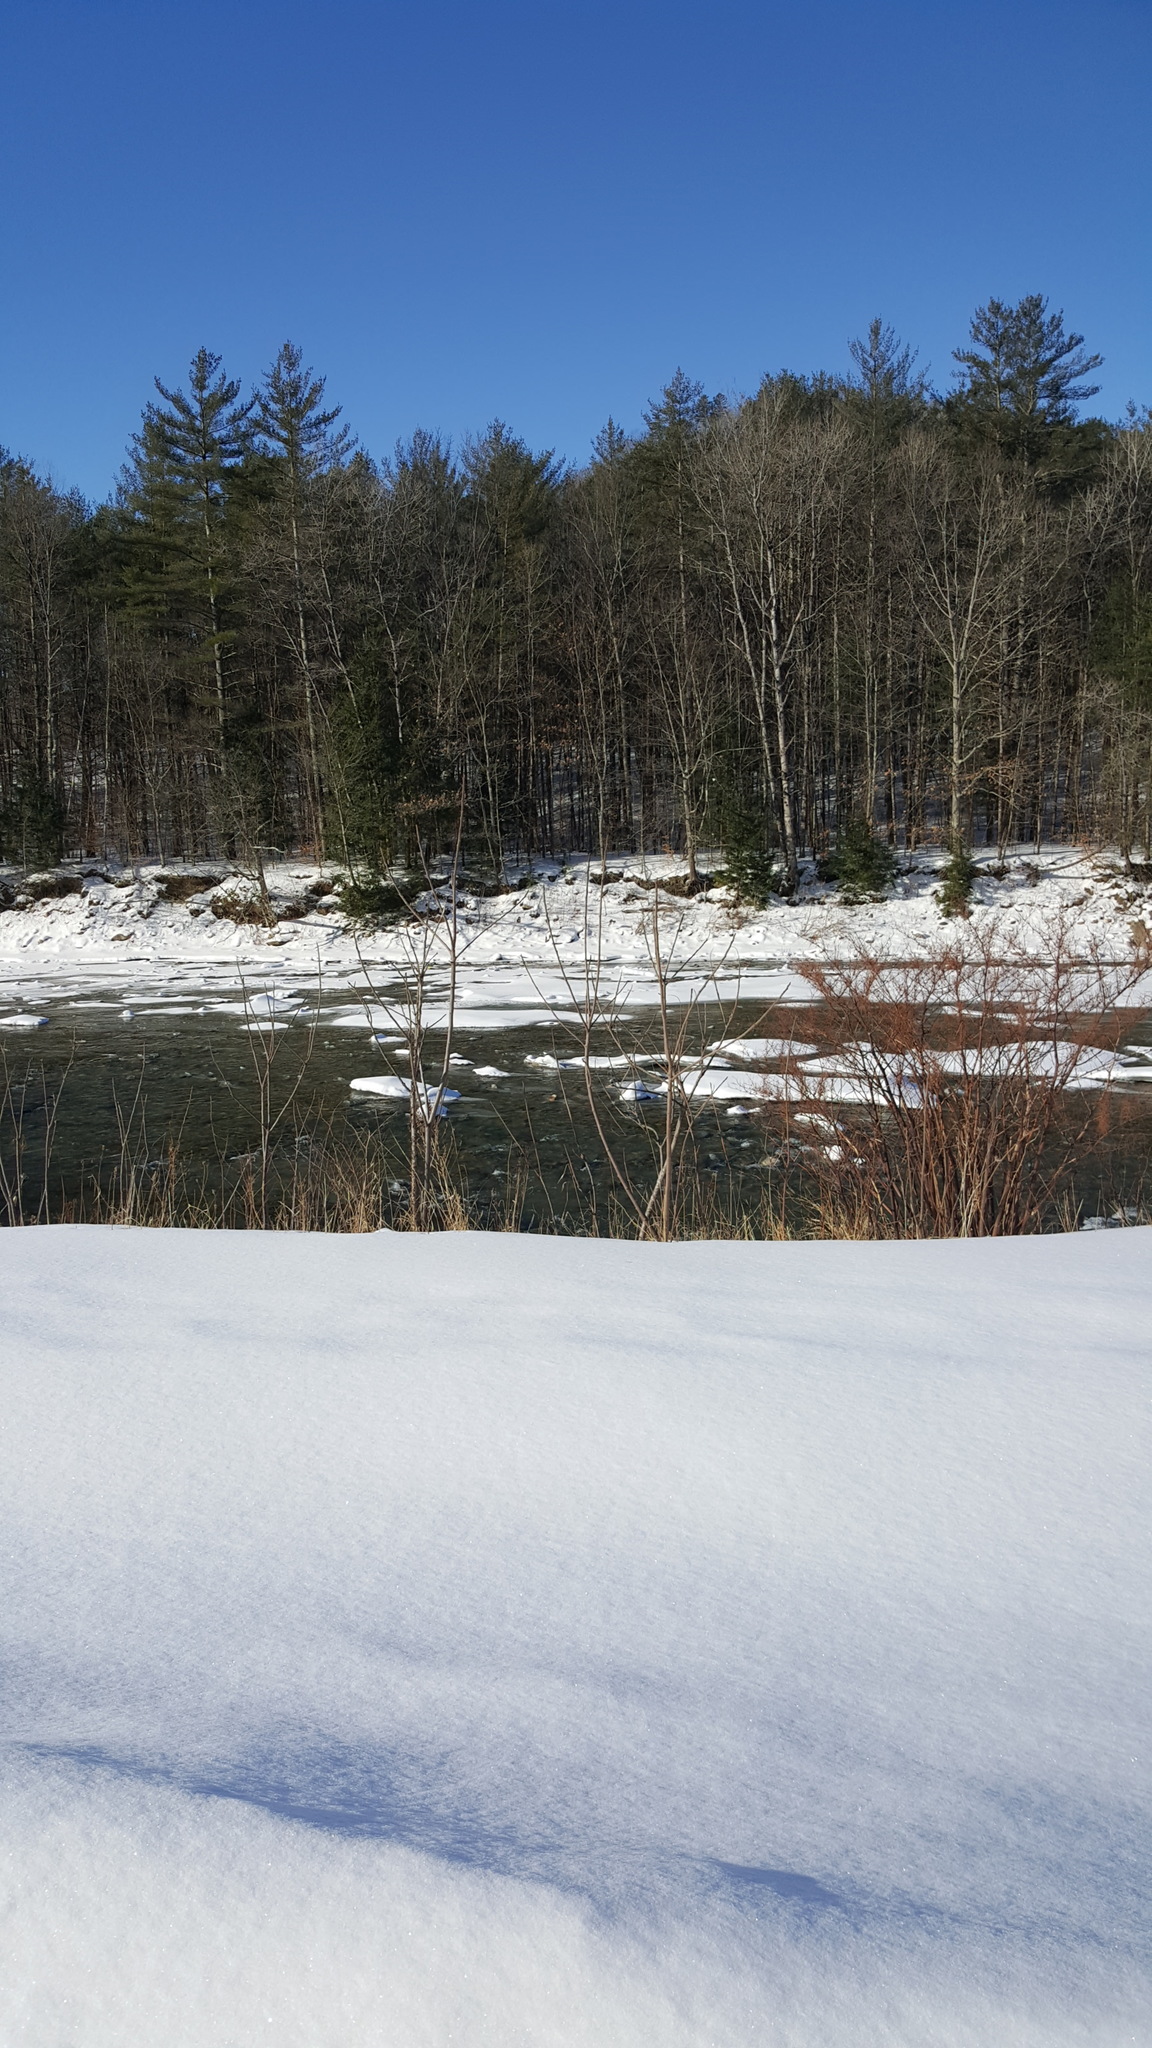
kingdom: Plantae
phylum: Tracheophyta
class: Magnoliopsida
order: Caryophyllales
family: Polygonaceae
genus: Reynoutria
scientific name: Reynoutria japonica
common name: Japanese knotweed
